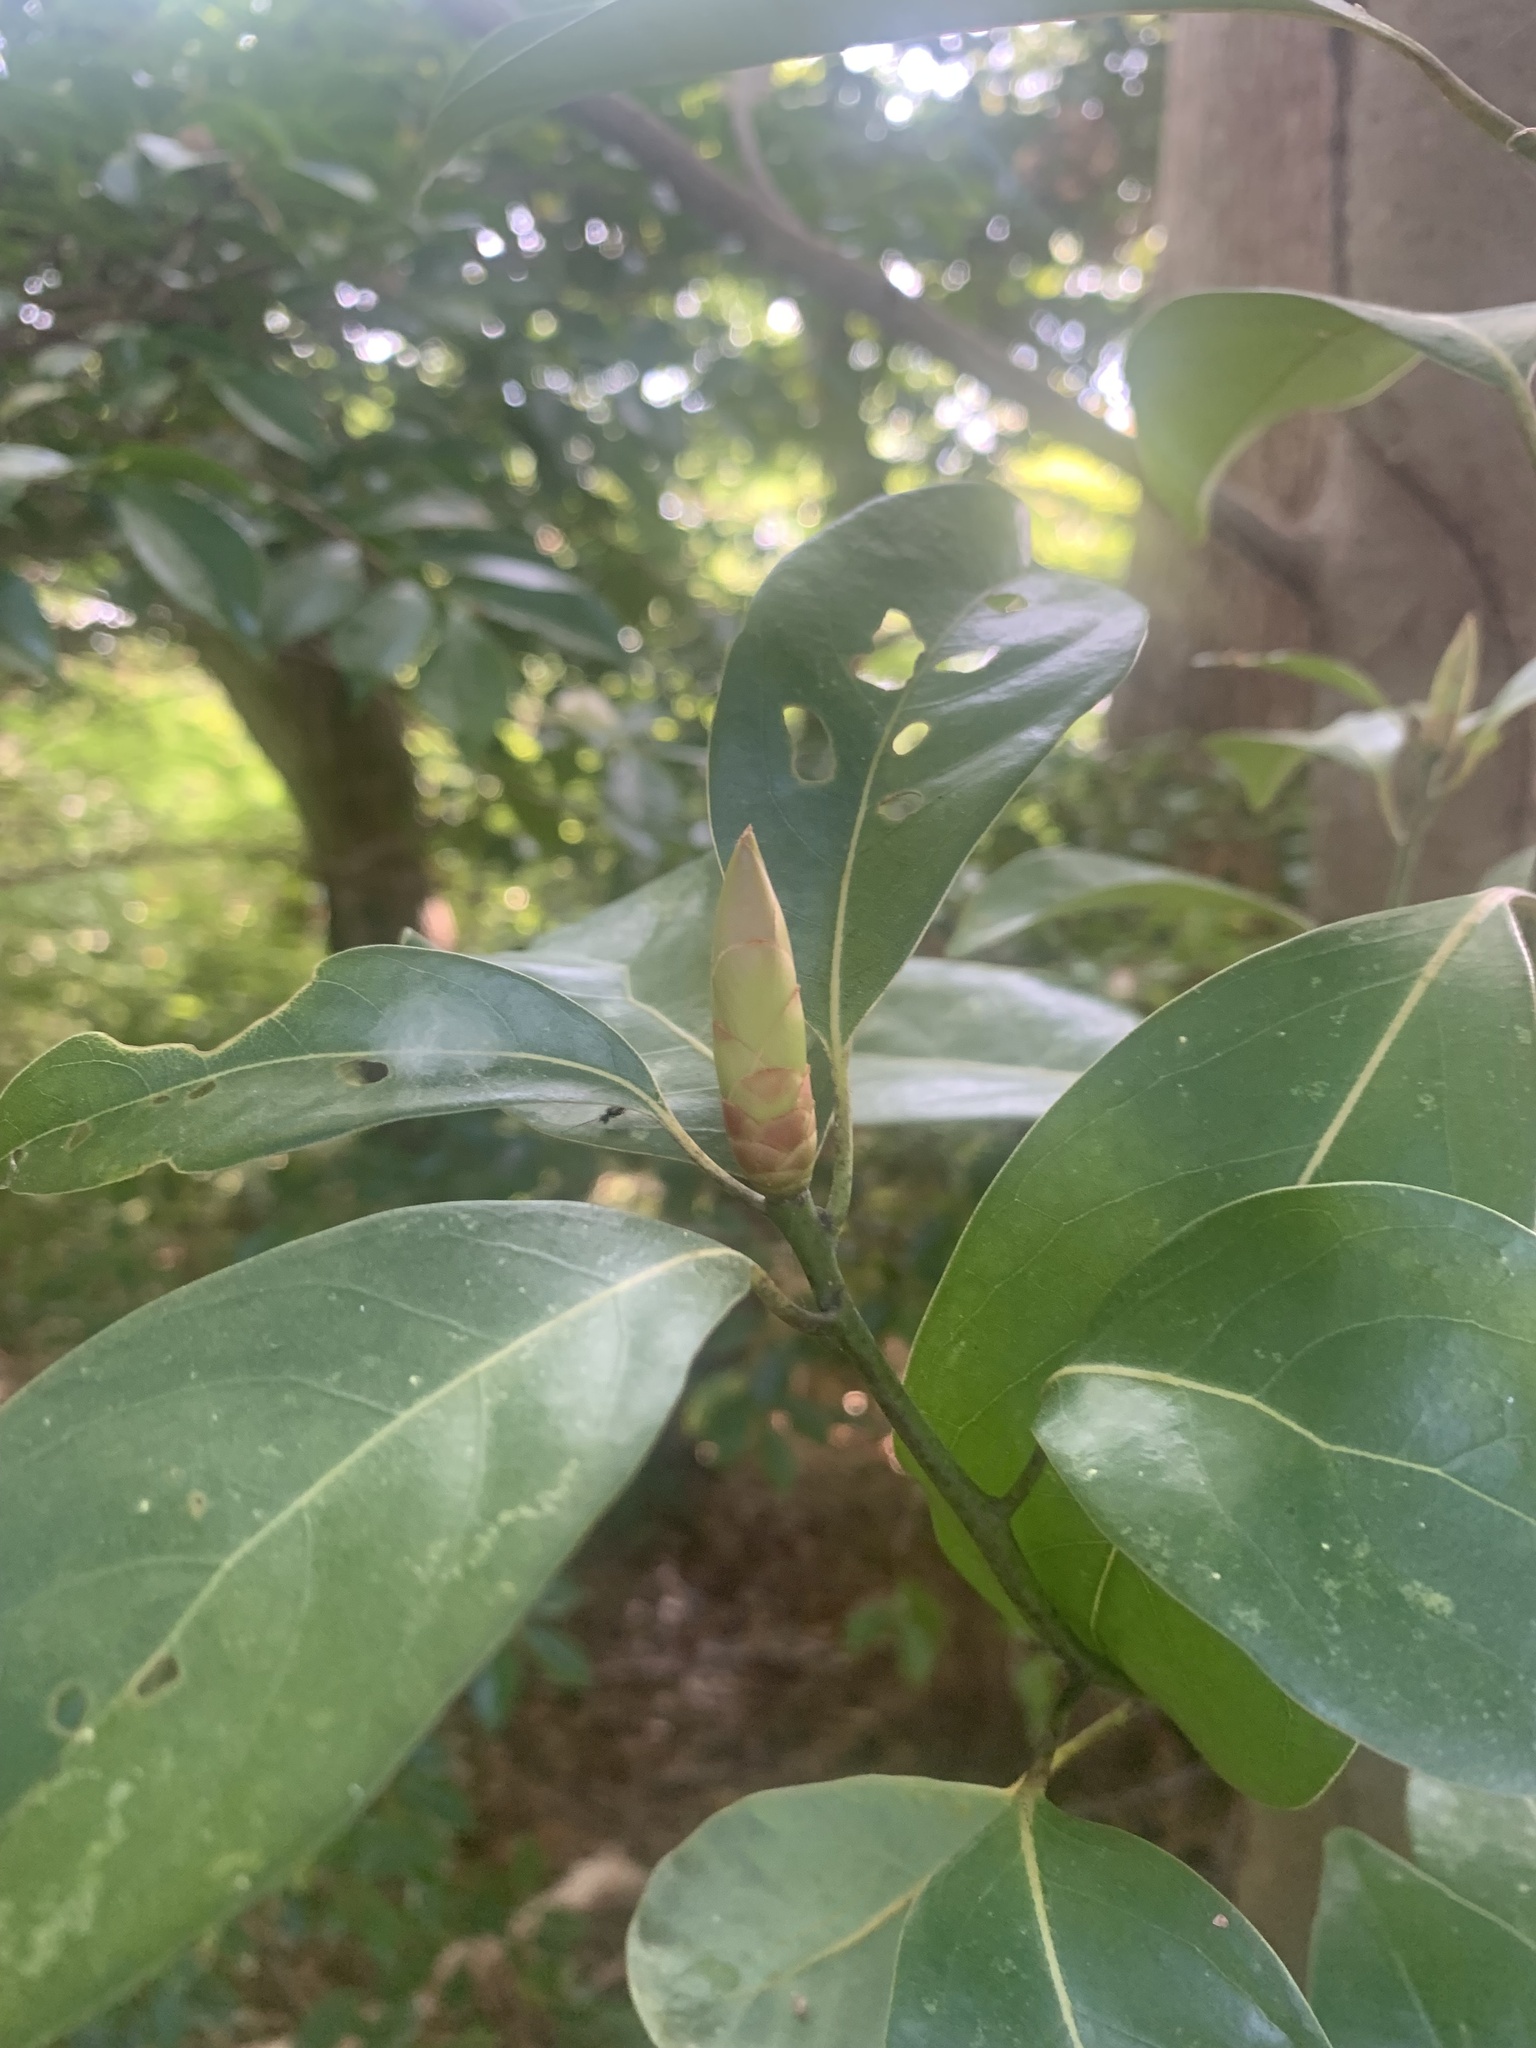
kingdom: Plantae
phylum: Tracheophyta
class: Magnoliopsida
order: Laurales
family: Lauraceae
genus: Machilus
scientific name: Machilus thunbergii
